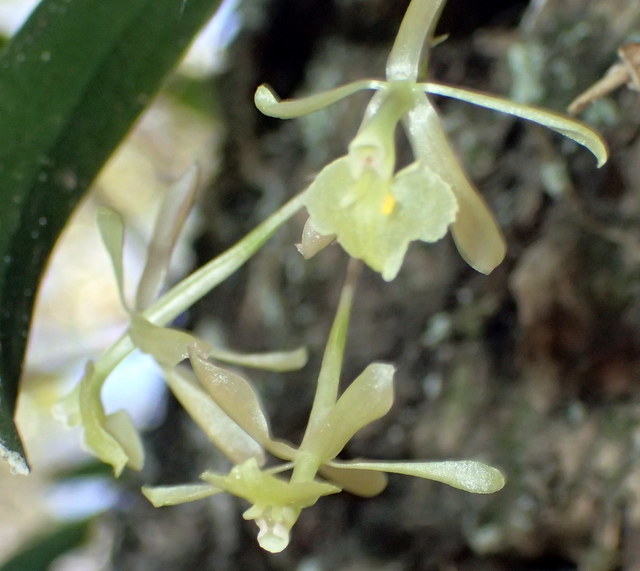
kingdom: Plantae
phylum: Tracheophyta
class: Liliopsida
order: Asparagales
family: Orchidaceae
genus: Epidendrum
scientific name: Epidendrum conopseum
